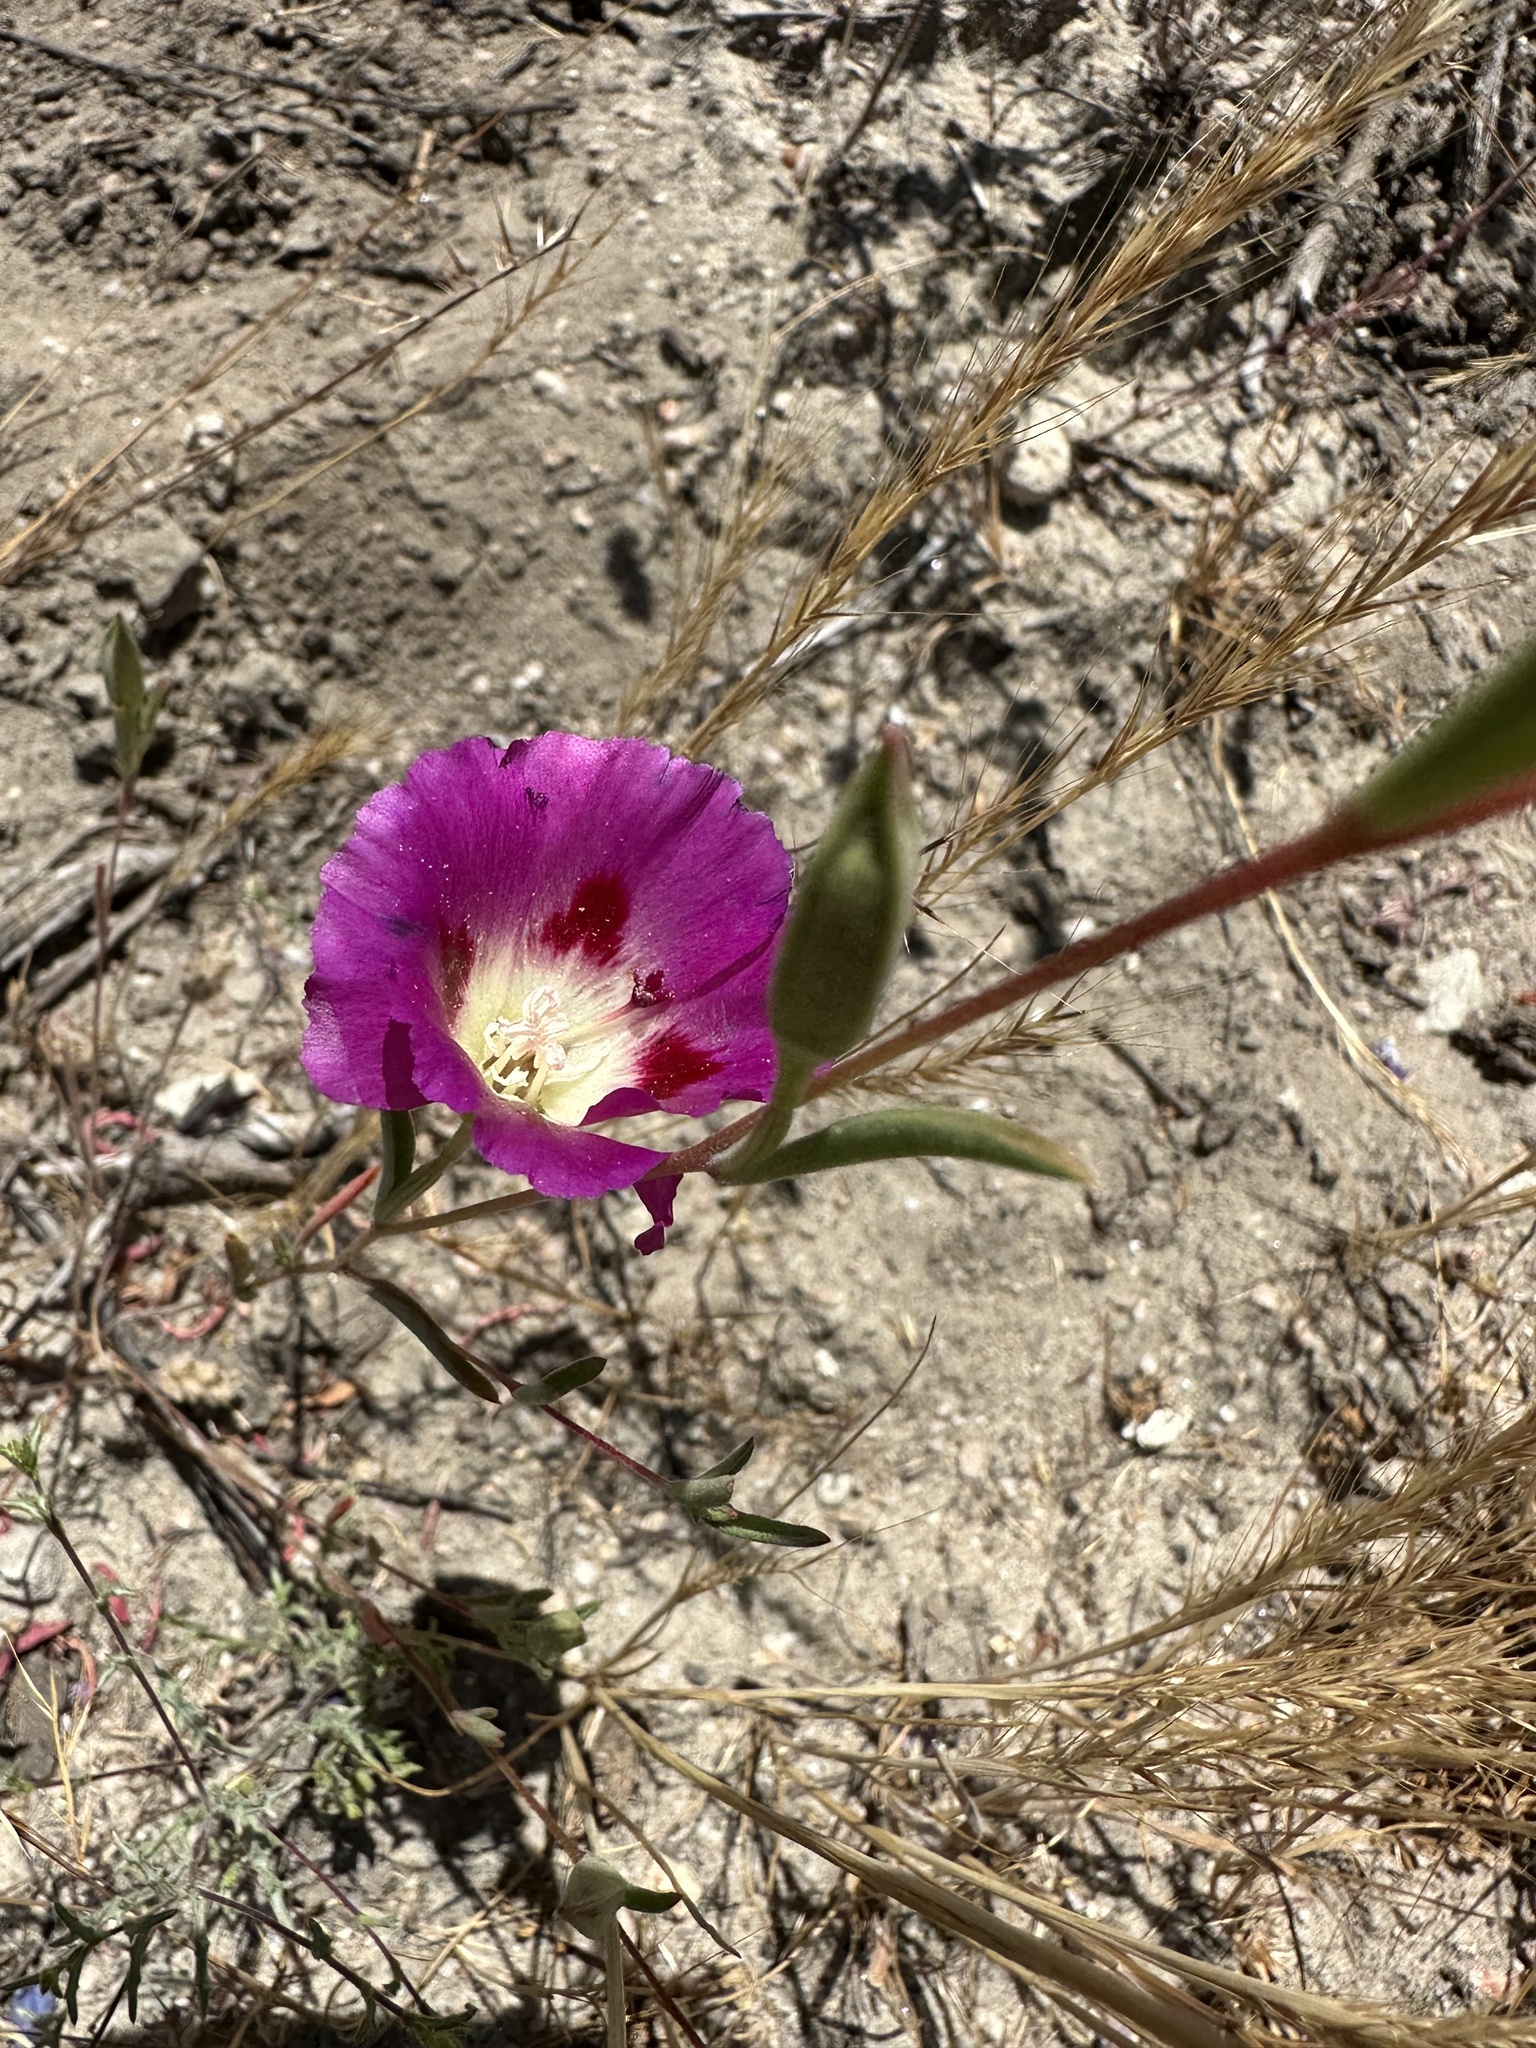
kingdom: Plantae
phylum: Tracheophyta
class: Magnoliopsida
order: Myrtales
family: Onagraceae
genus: Clarkia
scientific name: Clarkia speciosa
